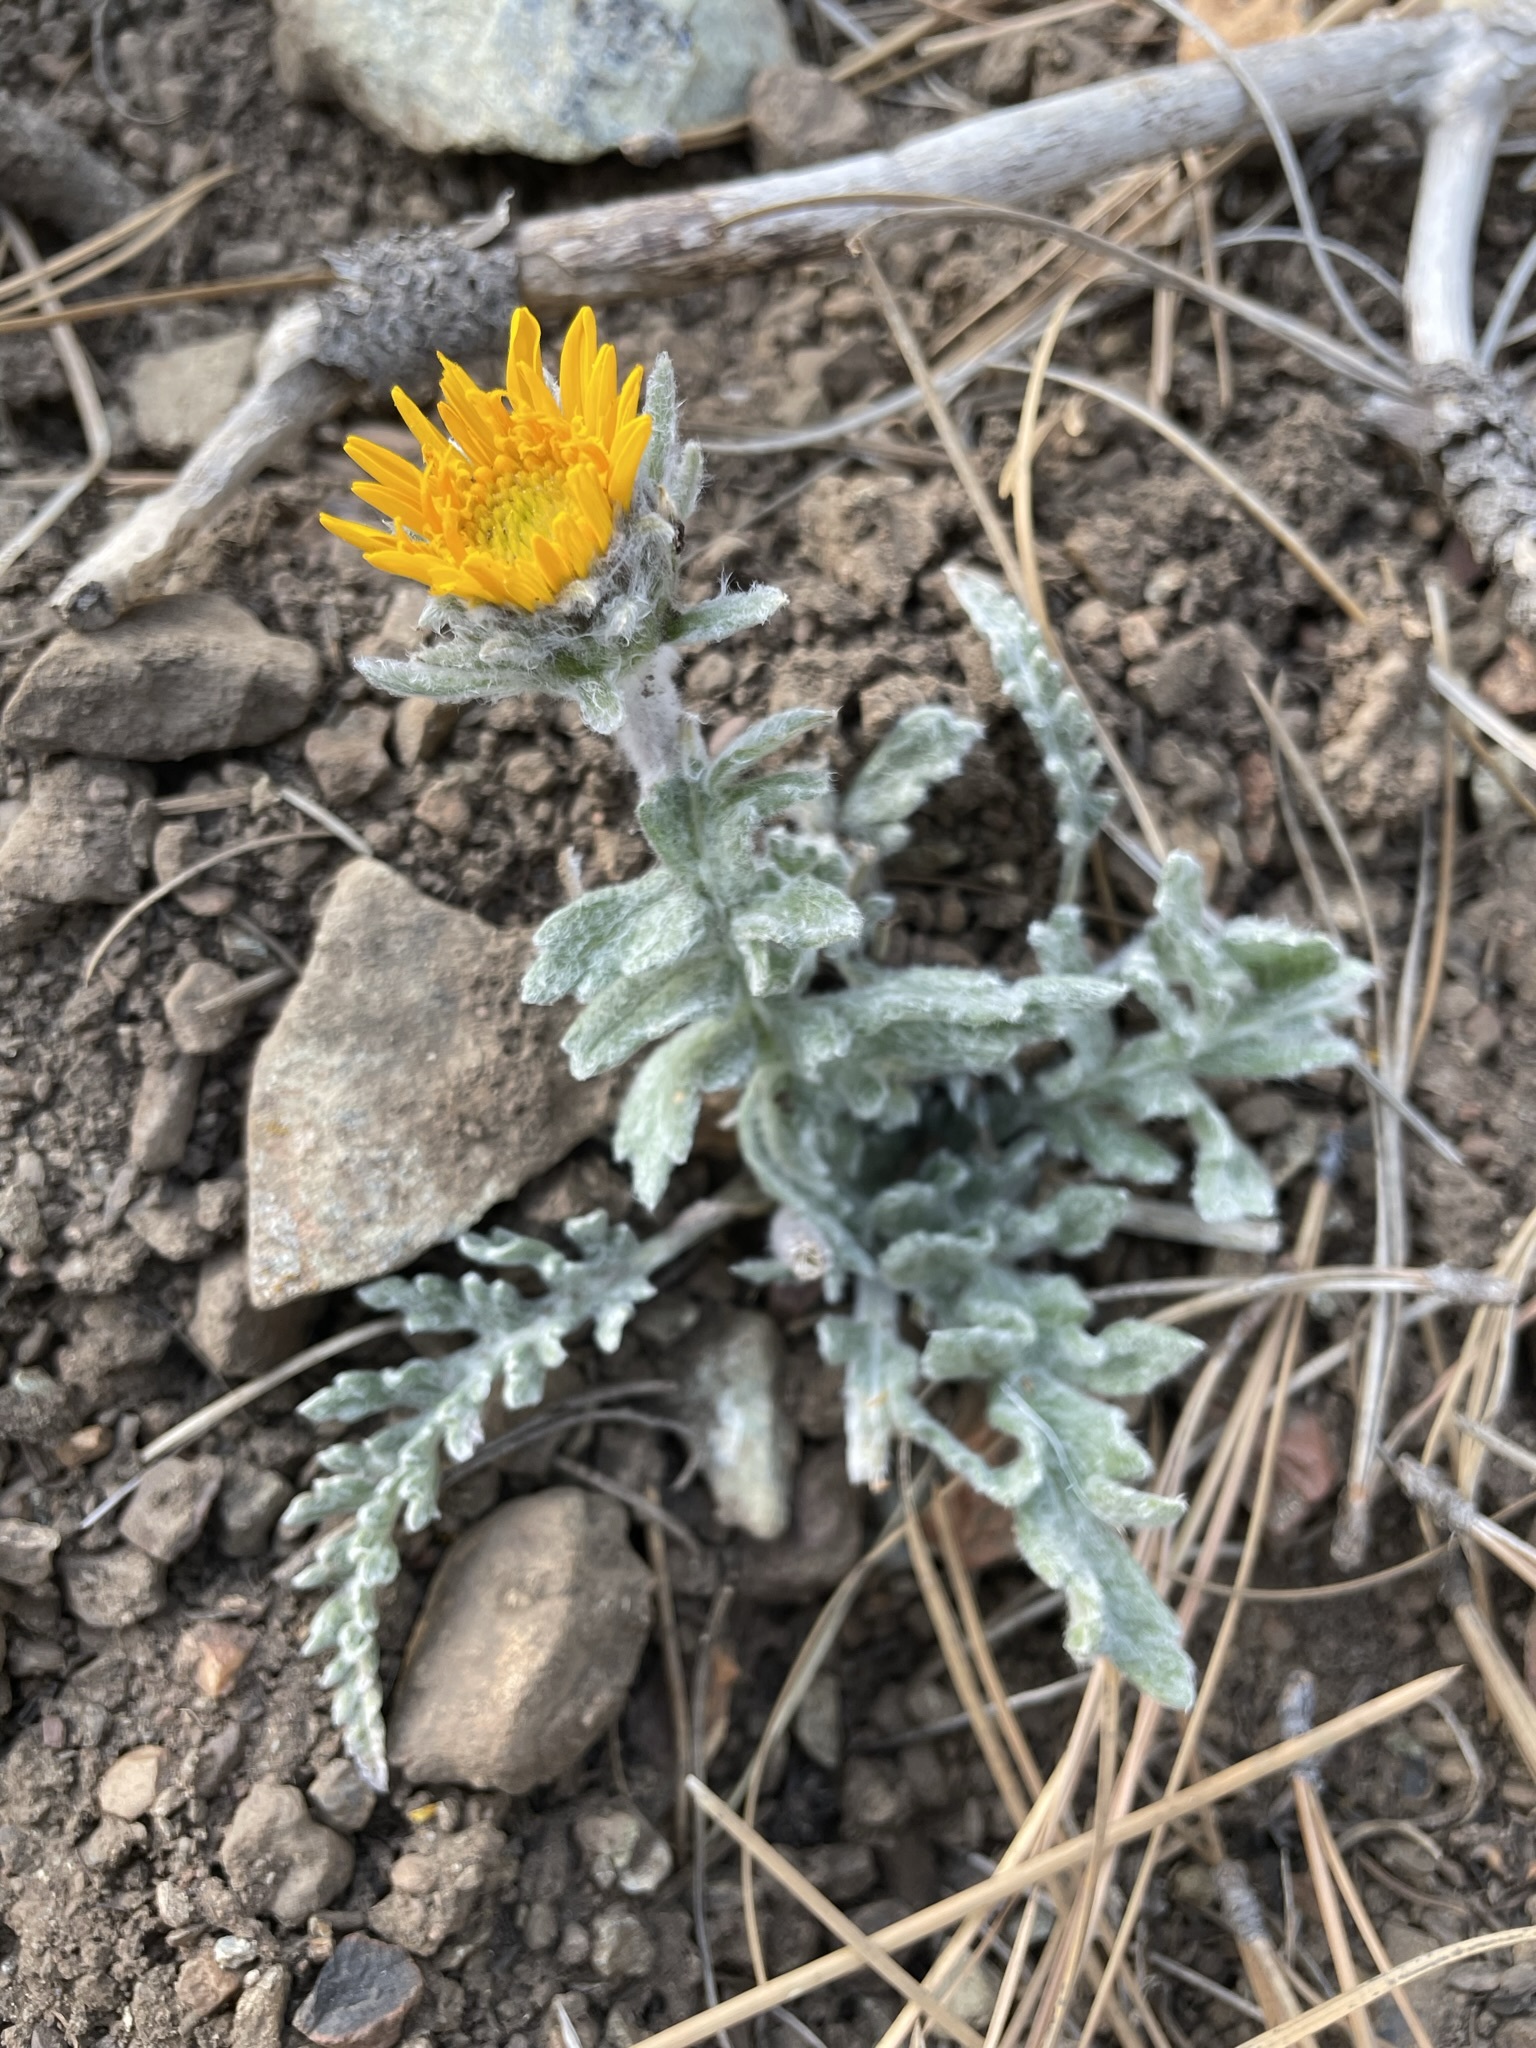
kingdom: Plantae
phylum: Tracheophyta
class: Magnoliopsida
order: Asterales
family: Asteraceae
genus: Balsamorhiza
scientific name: Balsamorhiza lanata
